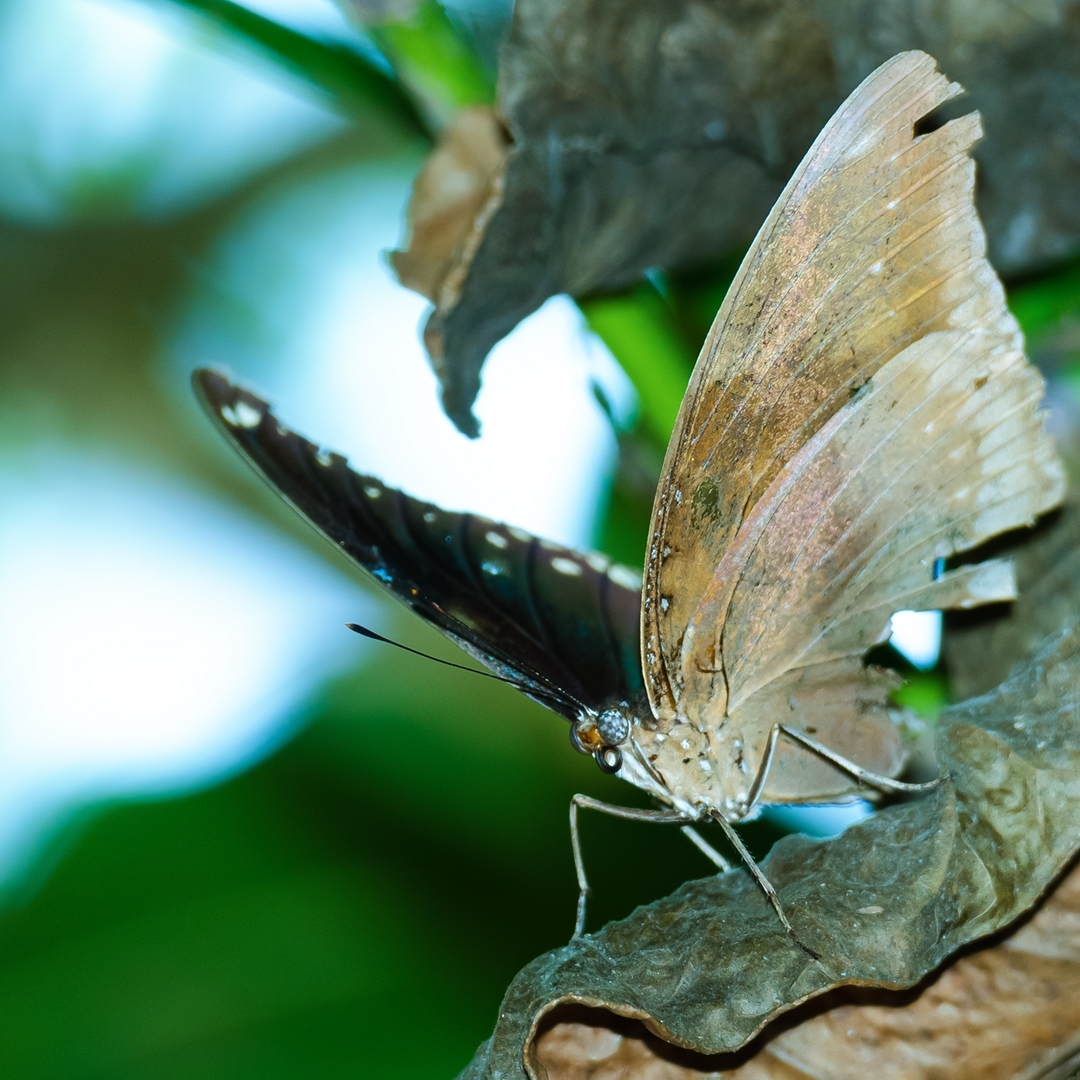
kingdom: Animalia
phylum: Arthropoda
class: Insecta
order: Lepidoptera
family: Nymphalidae
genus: Hypolimnas
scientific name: Hypolimnas bolina
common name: Great eggfly
